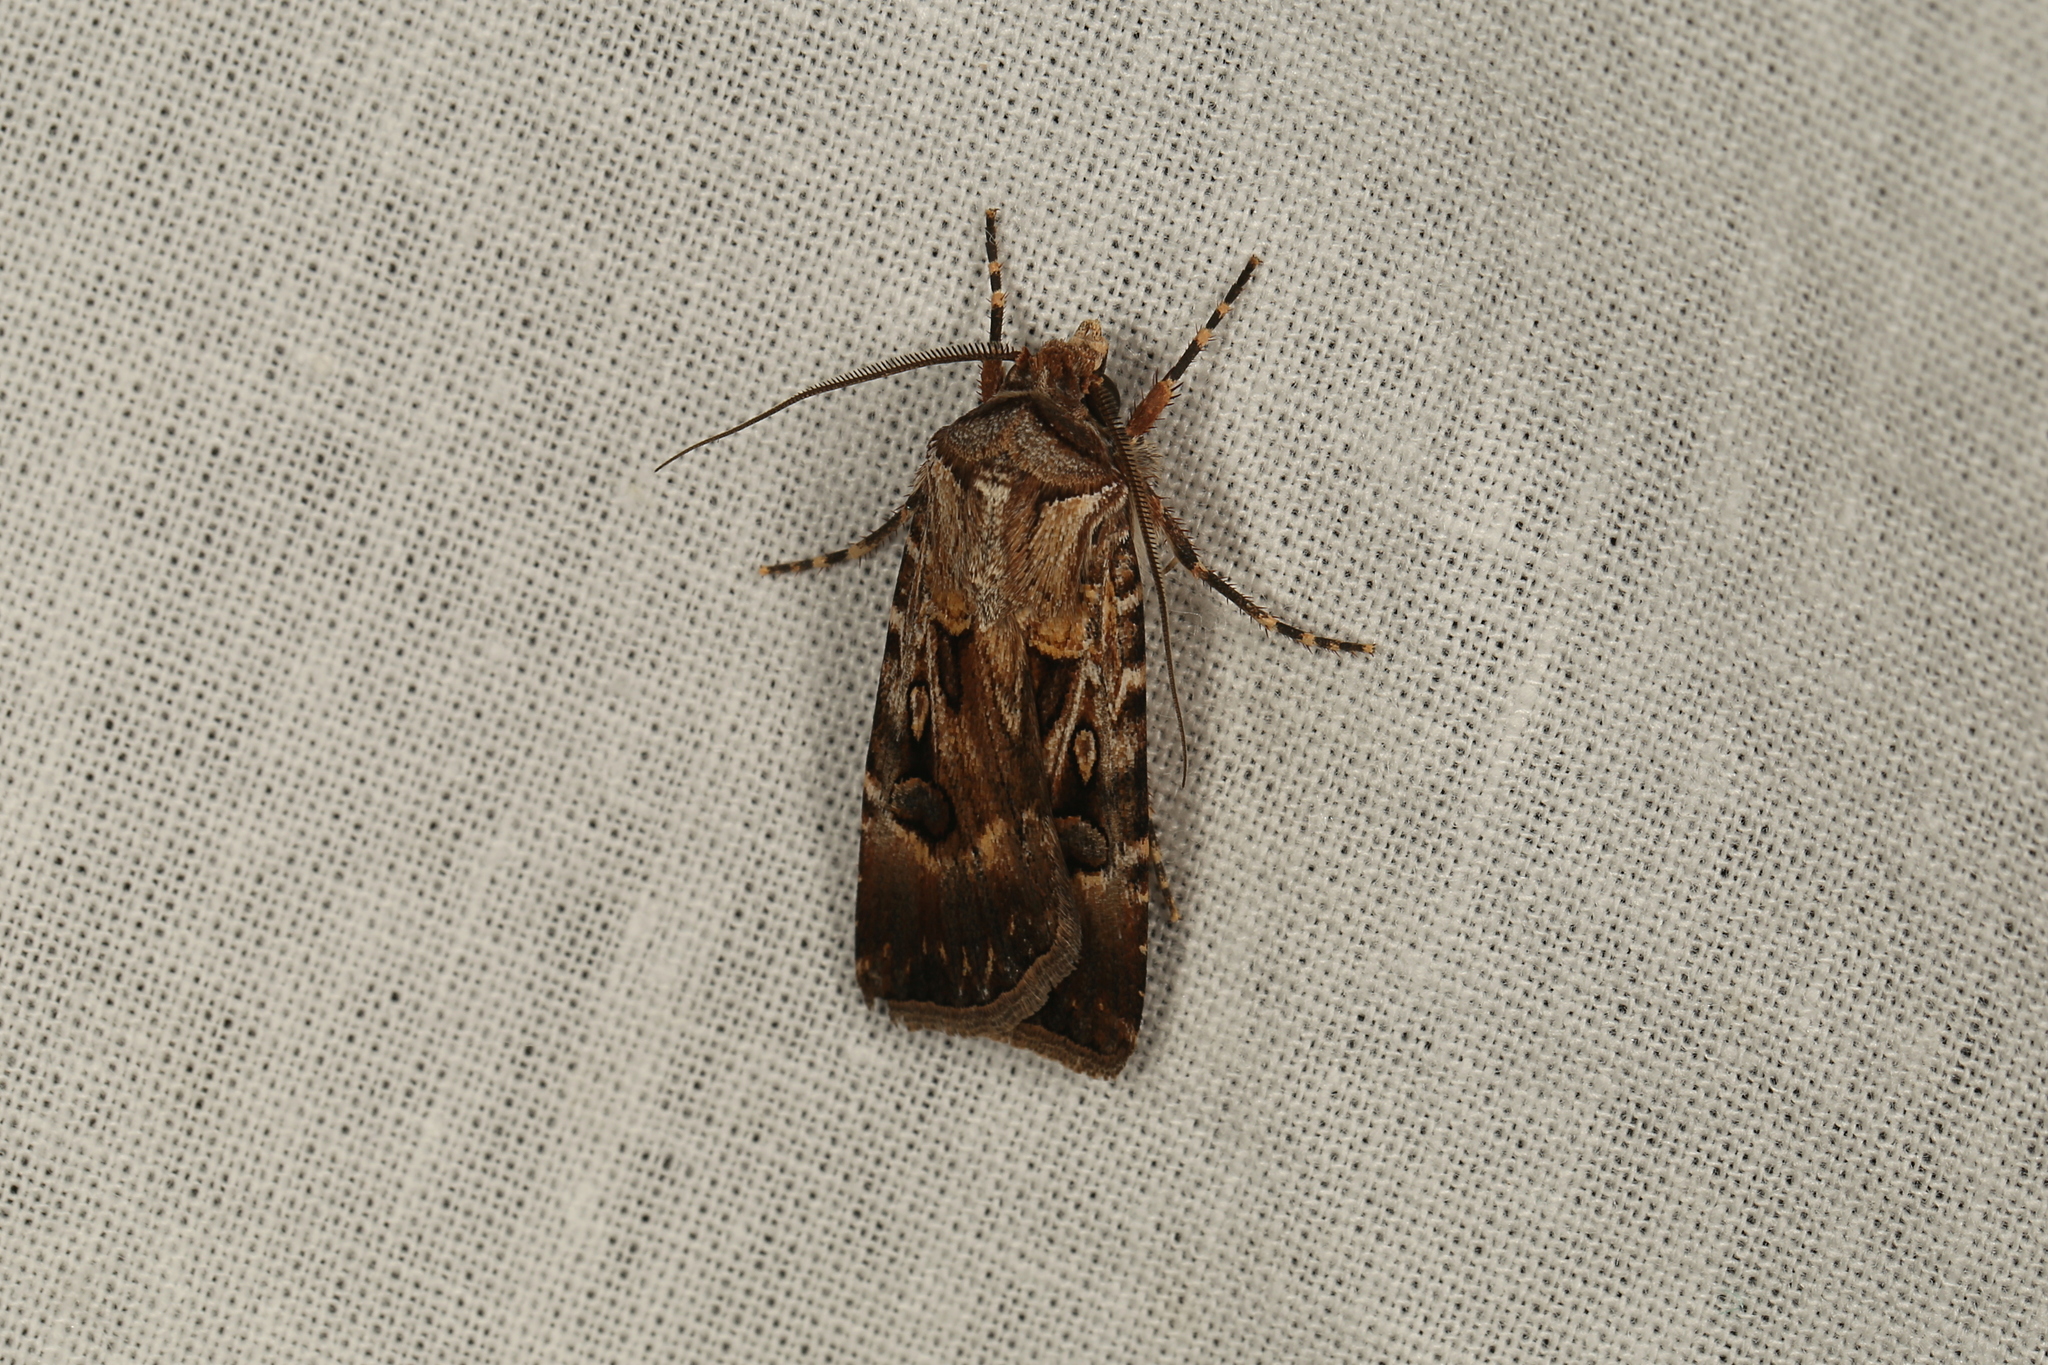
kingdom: Animalia
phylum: Arthropoda
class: Insecta
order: Lepidoptera
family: Noctuidae
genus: Agrotis
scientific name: Agrotis munda
